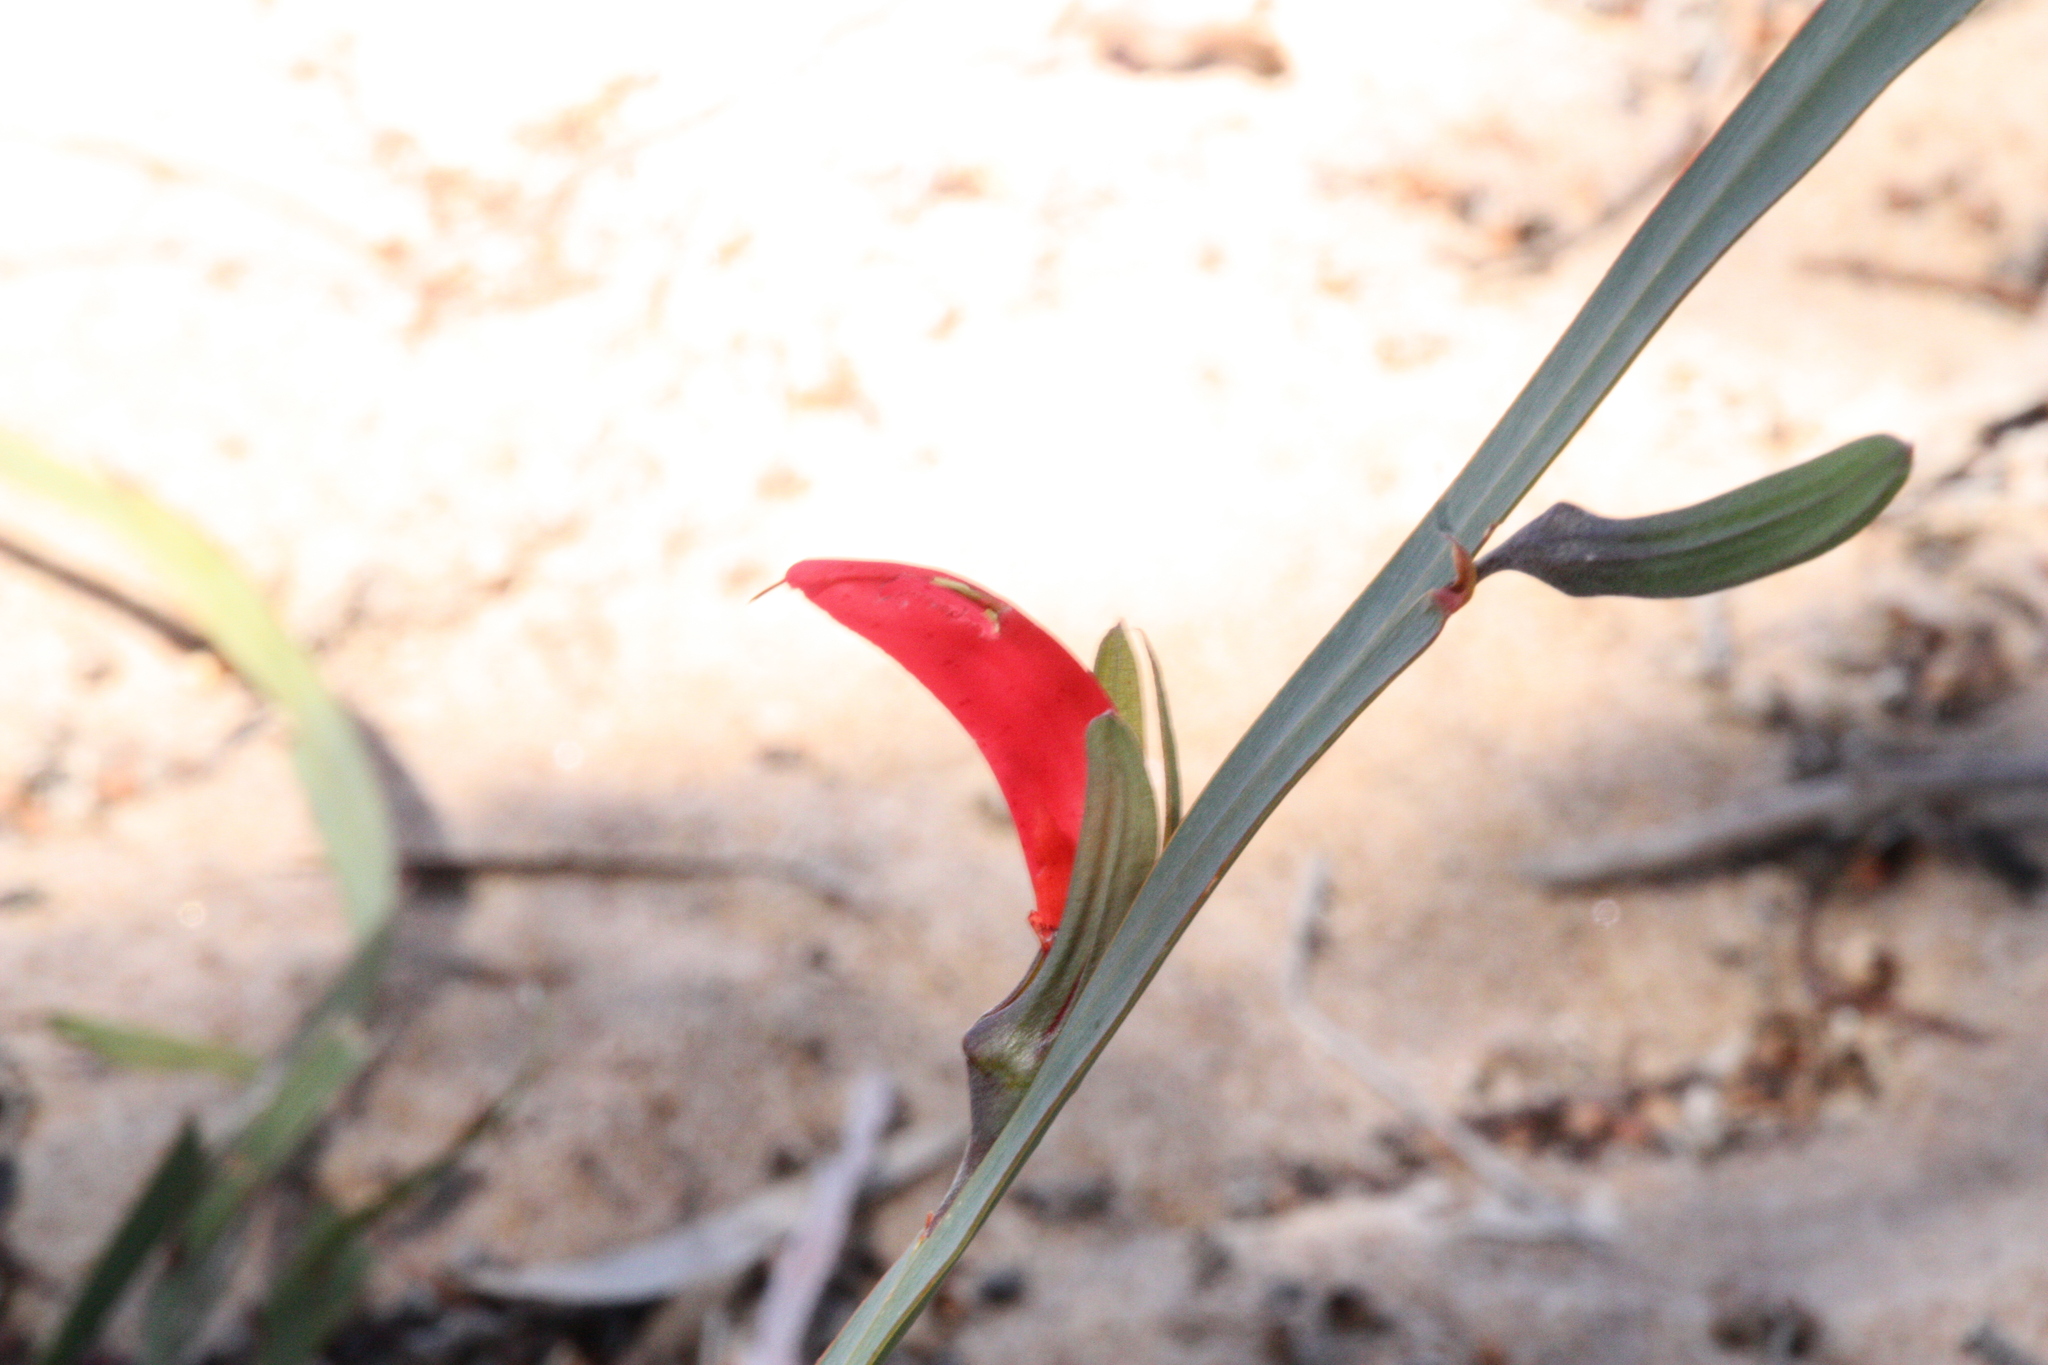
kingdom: Plantae
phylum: Tracheophyta
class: Magnoliopsida
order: Fabales
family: Fabaceae
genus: Leptosema
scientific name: Leptosema aphyllum
